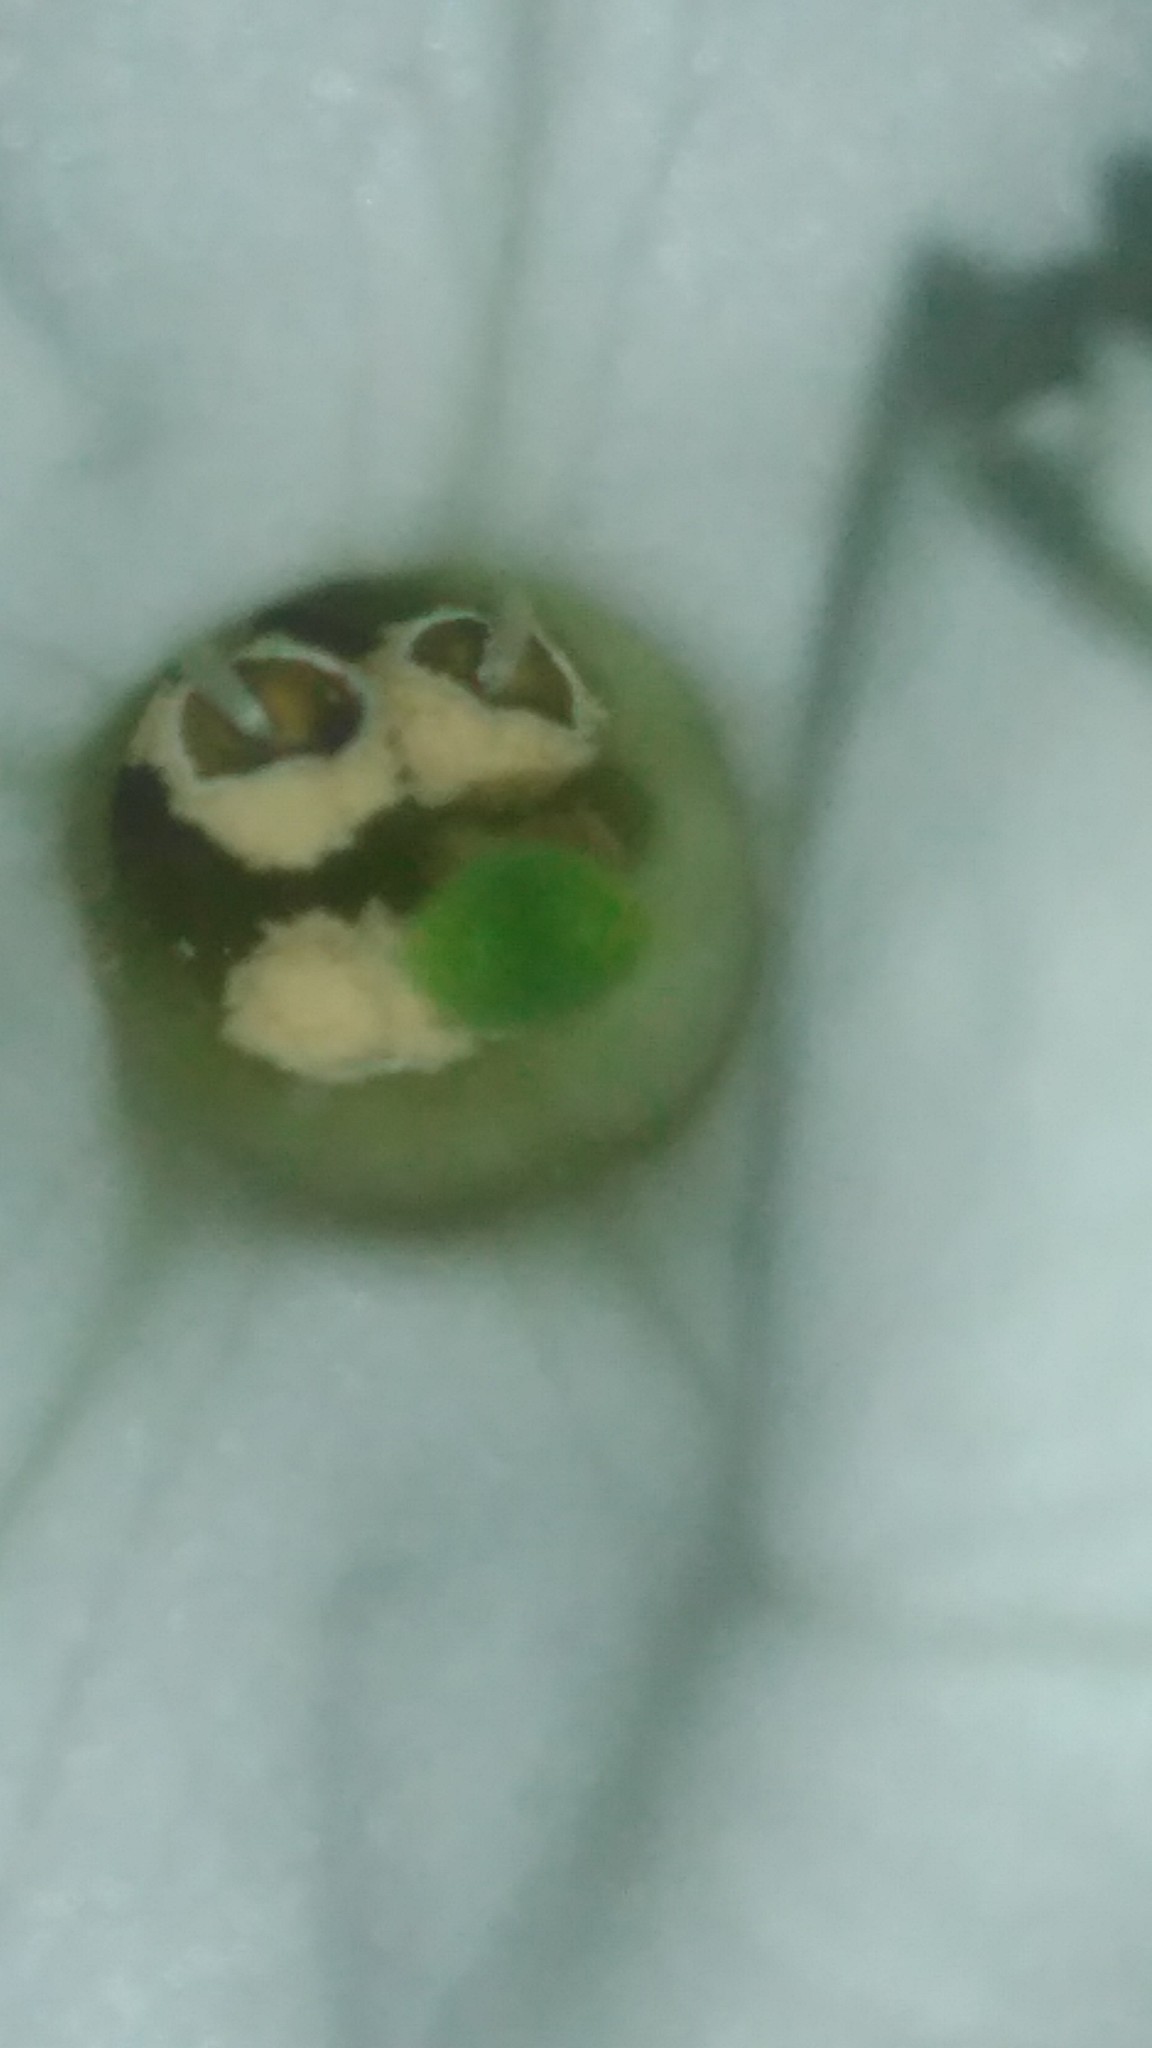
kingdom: Plantae
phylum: Tracheophyta
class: Magnoliopsida
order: Solanales
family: Solanaceae
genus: Nicotiana
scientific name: Nicotiana longiflora
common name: Long-flowered tobacco
